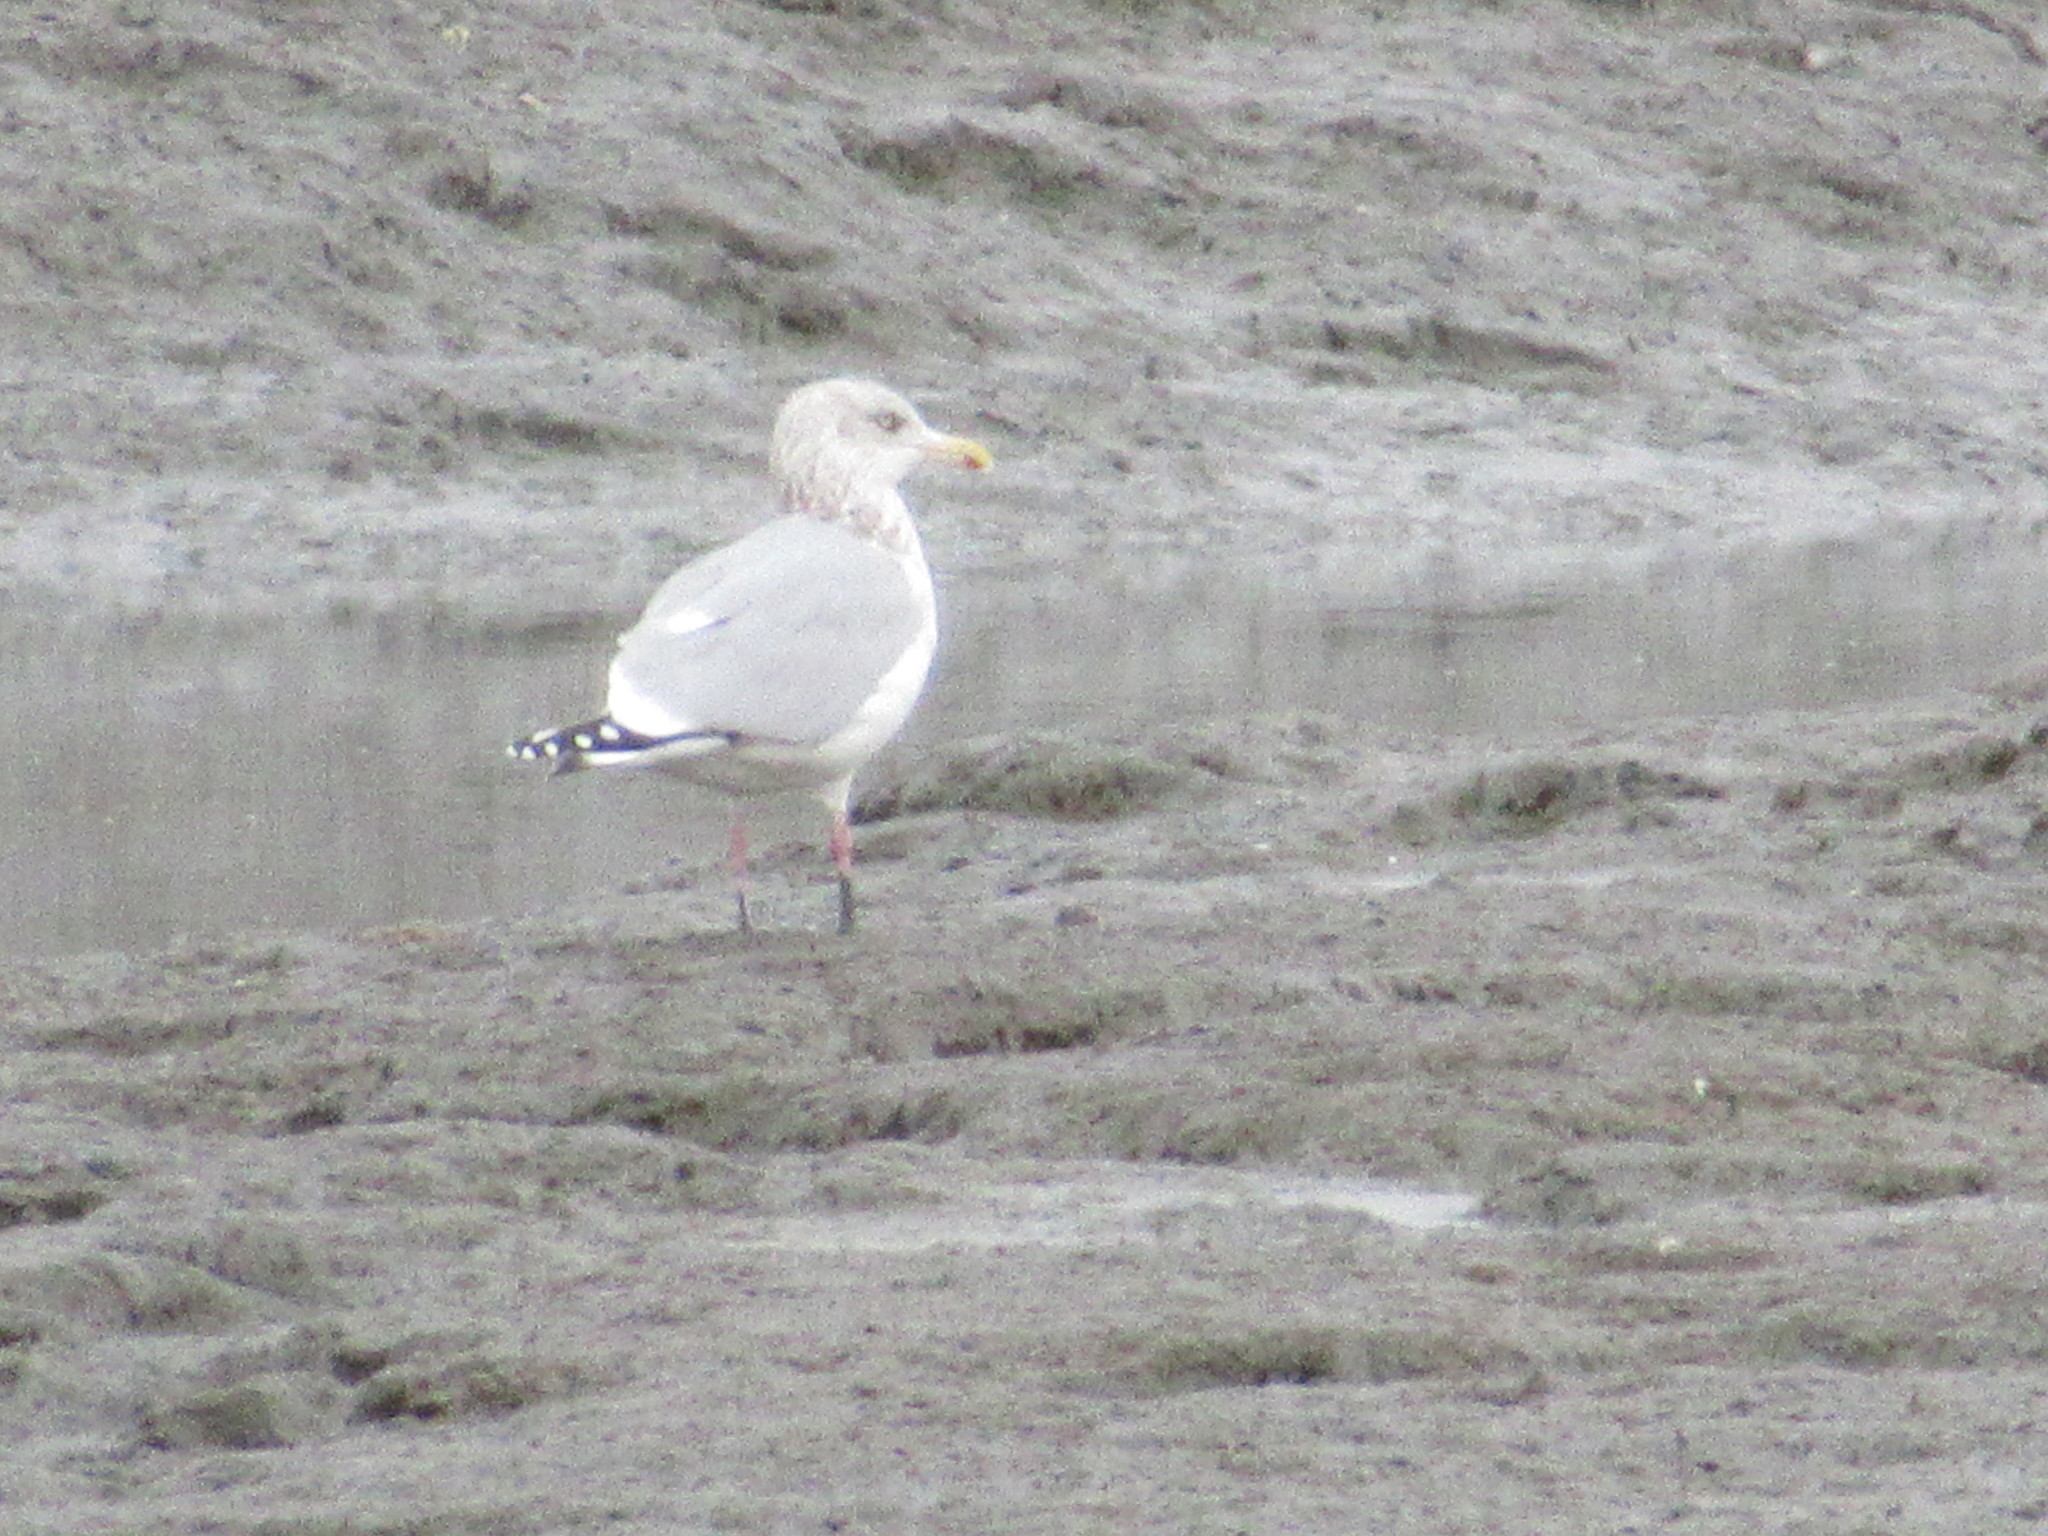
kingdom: Animalia
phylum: Chordata
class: Aves
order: Charadriiformes
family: Laridae
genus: Larus
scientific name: Larus argentatus
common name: Herring gull
